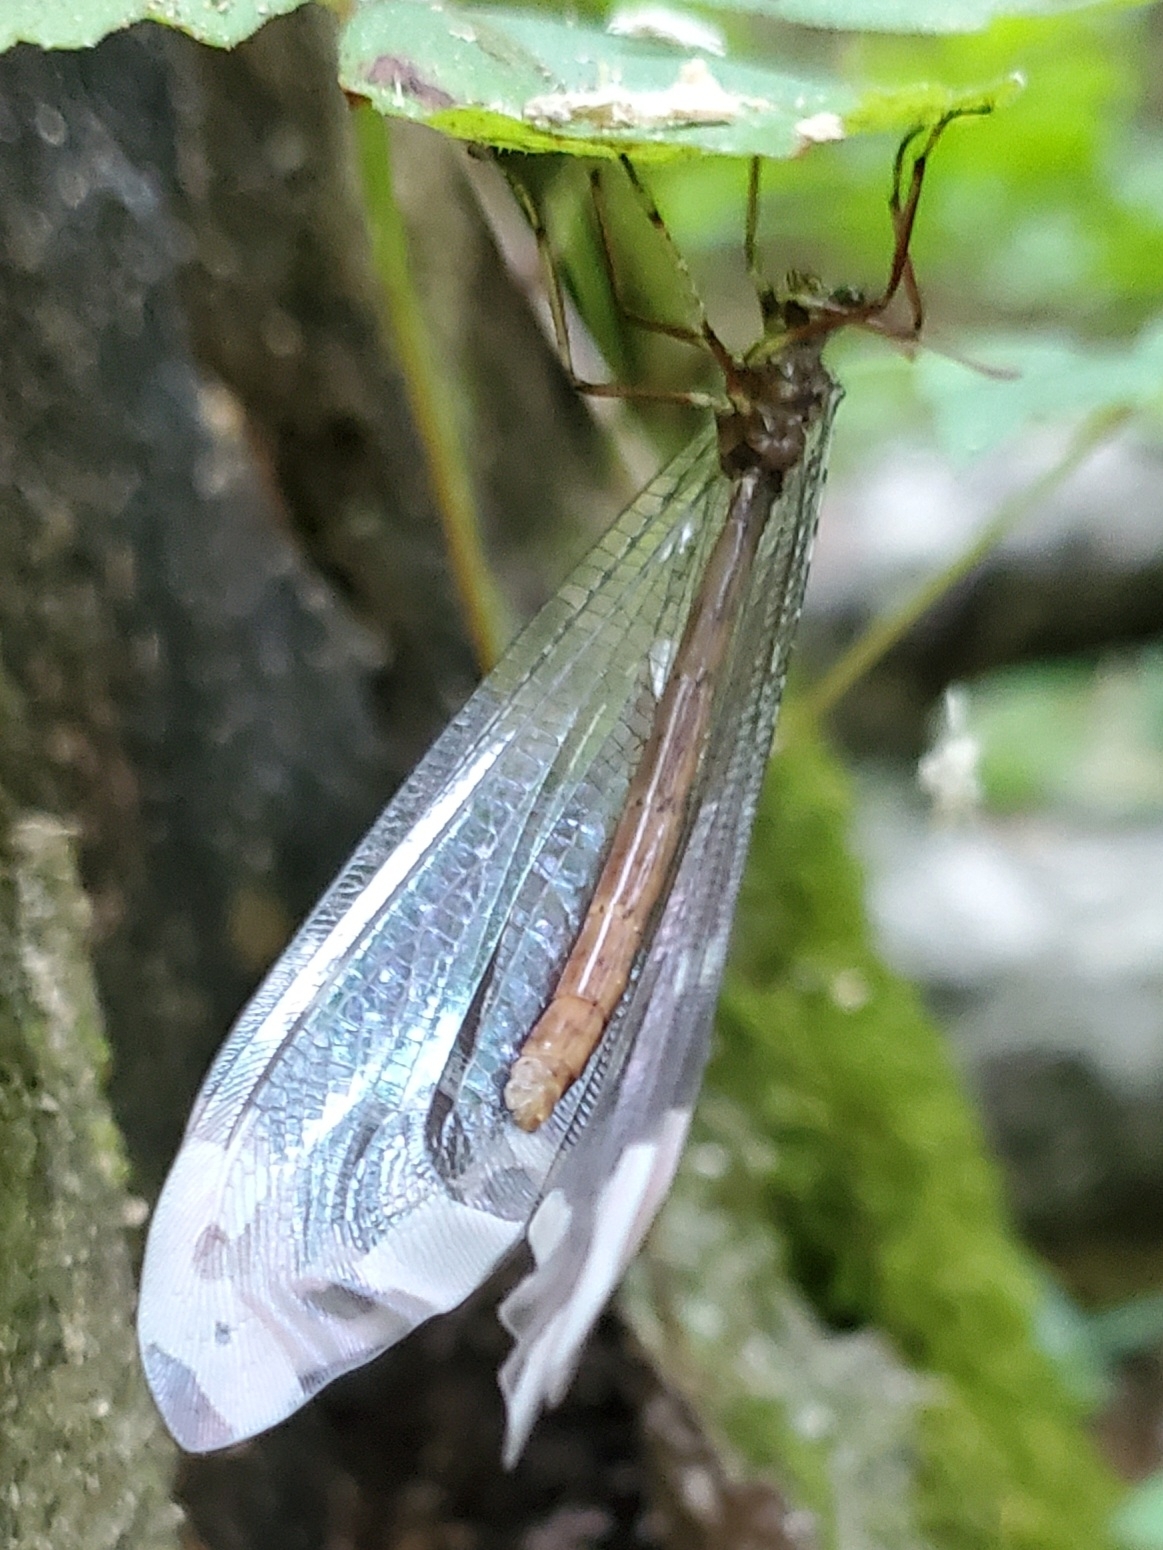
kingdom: Animalia
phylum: Arthropoda
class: Insecta
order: Neuroptera
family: Myrmeleontidae
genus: Glenurus
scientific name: Glenurus gratus
